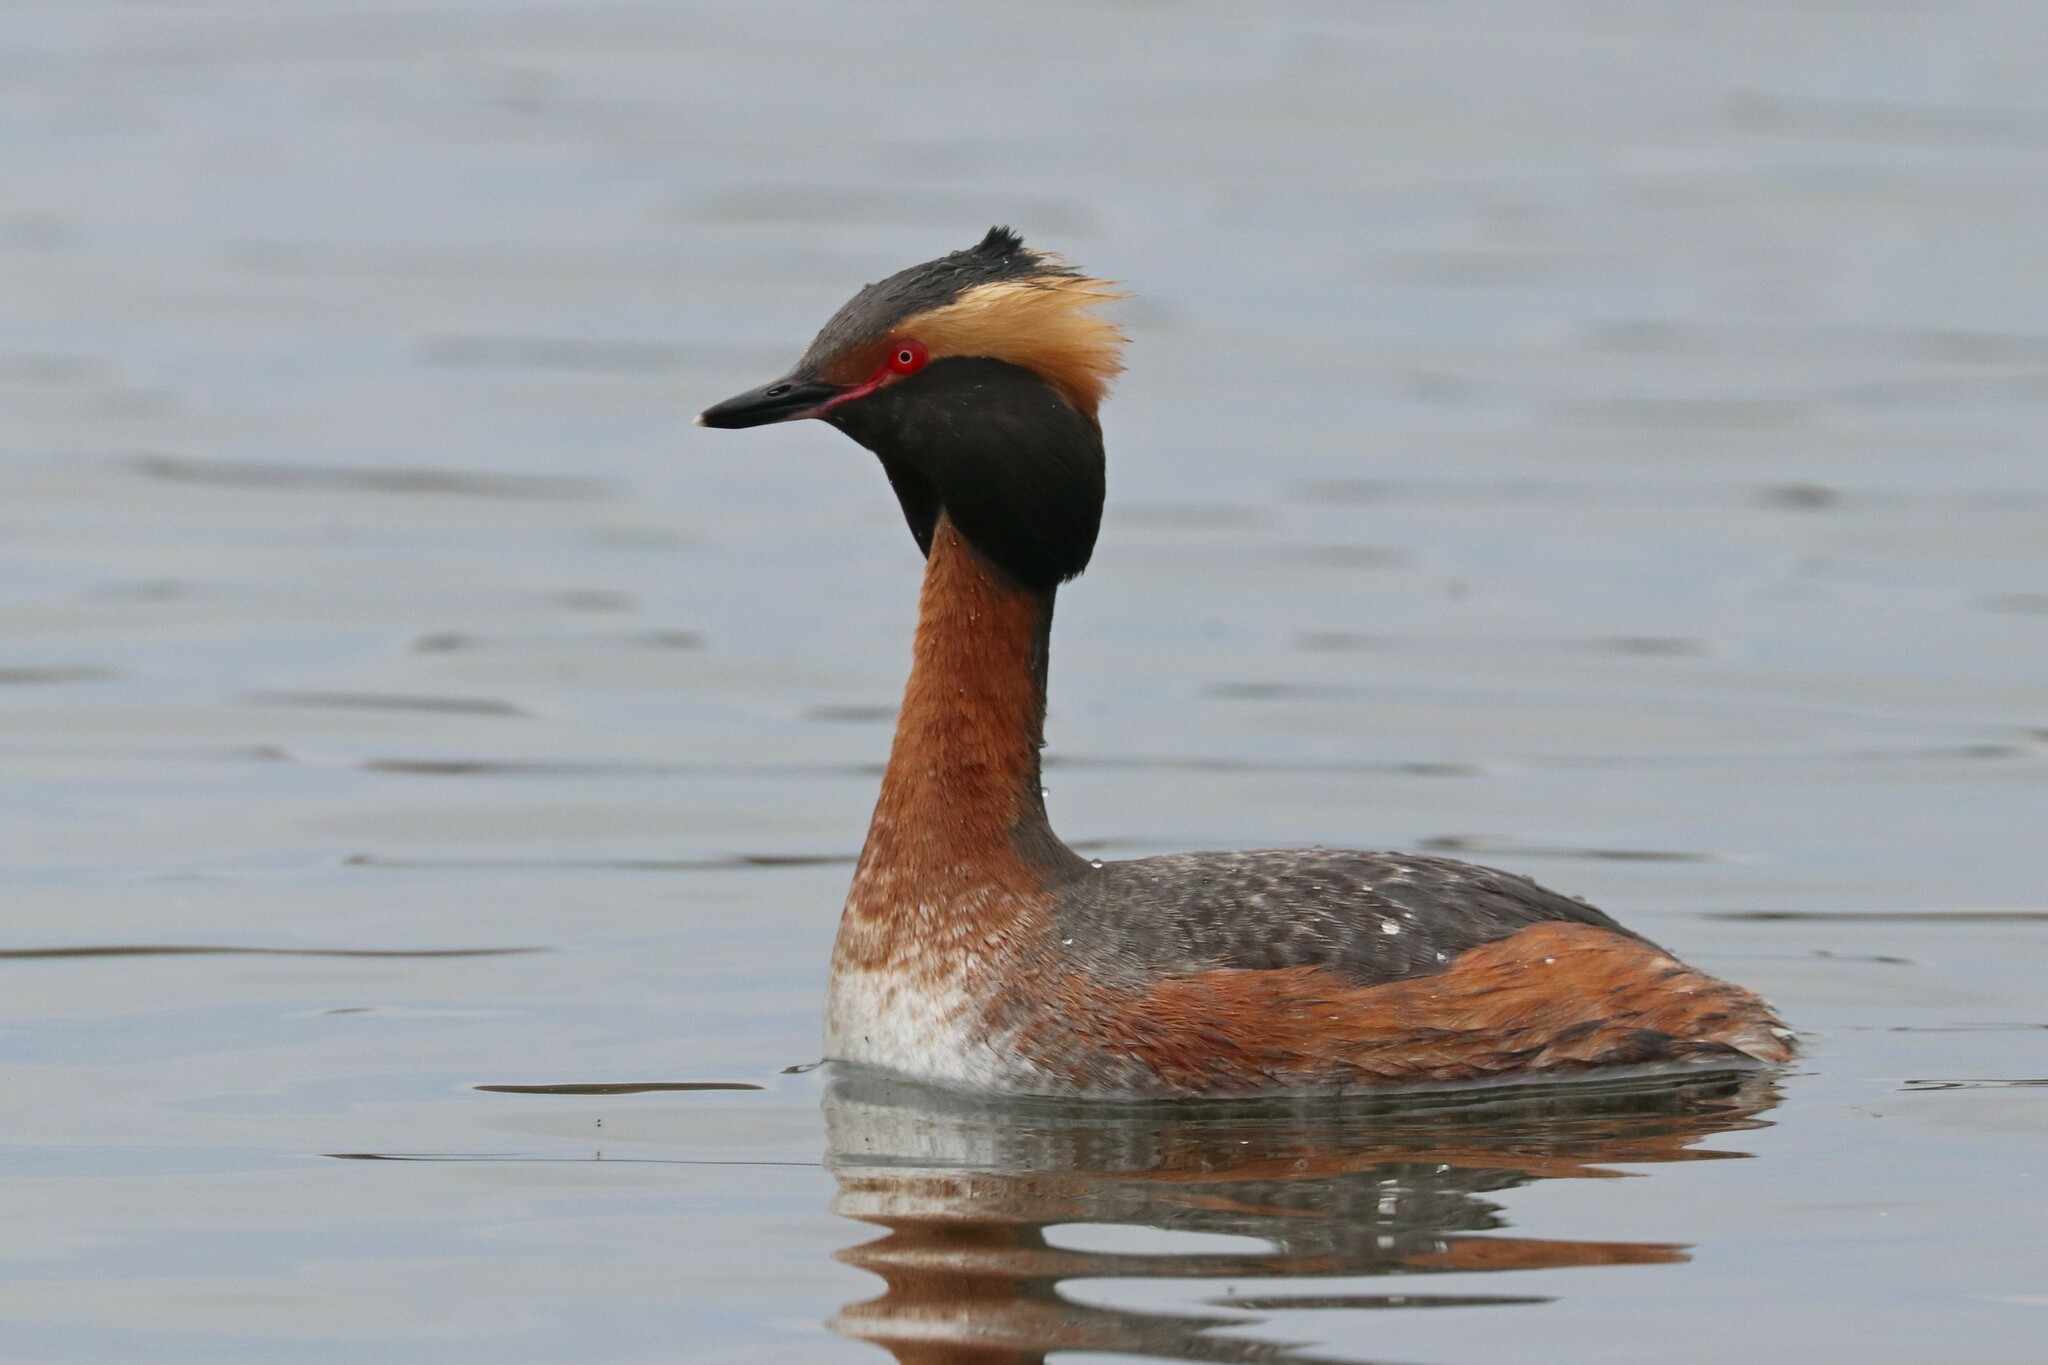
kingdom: Animalia
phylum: Chordata
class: Aves
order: Podicipediformes
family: Podicipedidae
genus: Podiceps
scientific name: Podiceps auritus
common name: Horned grebe
